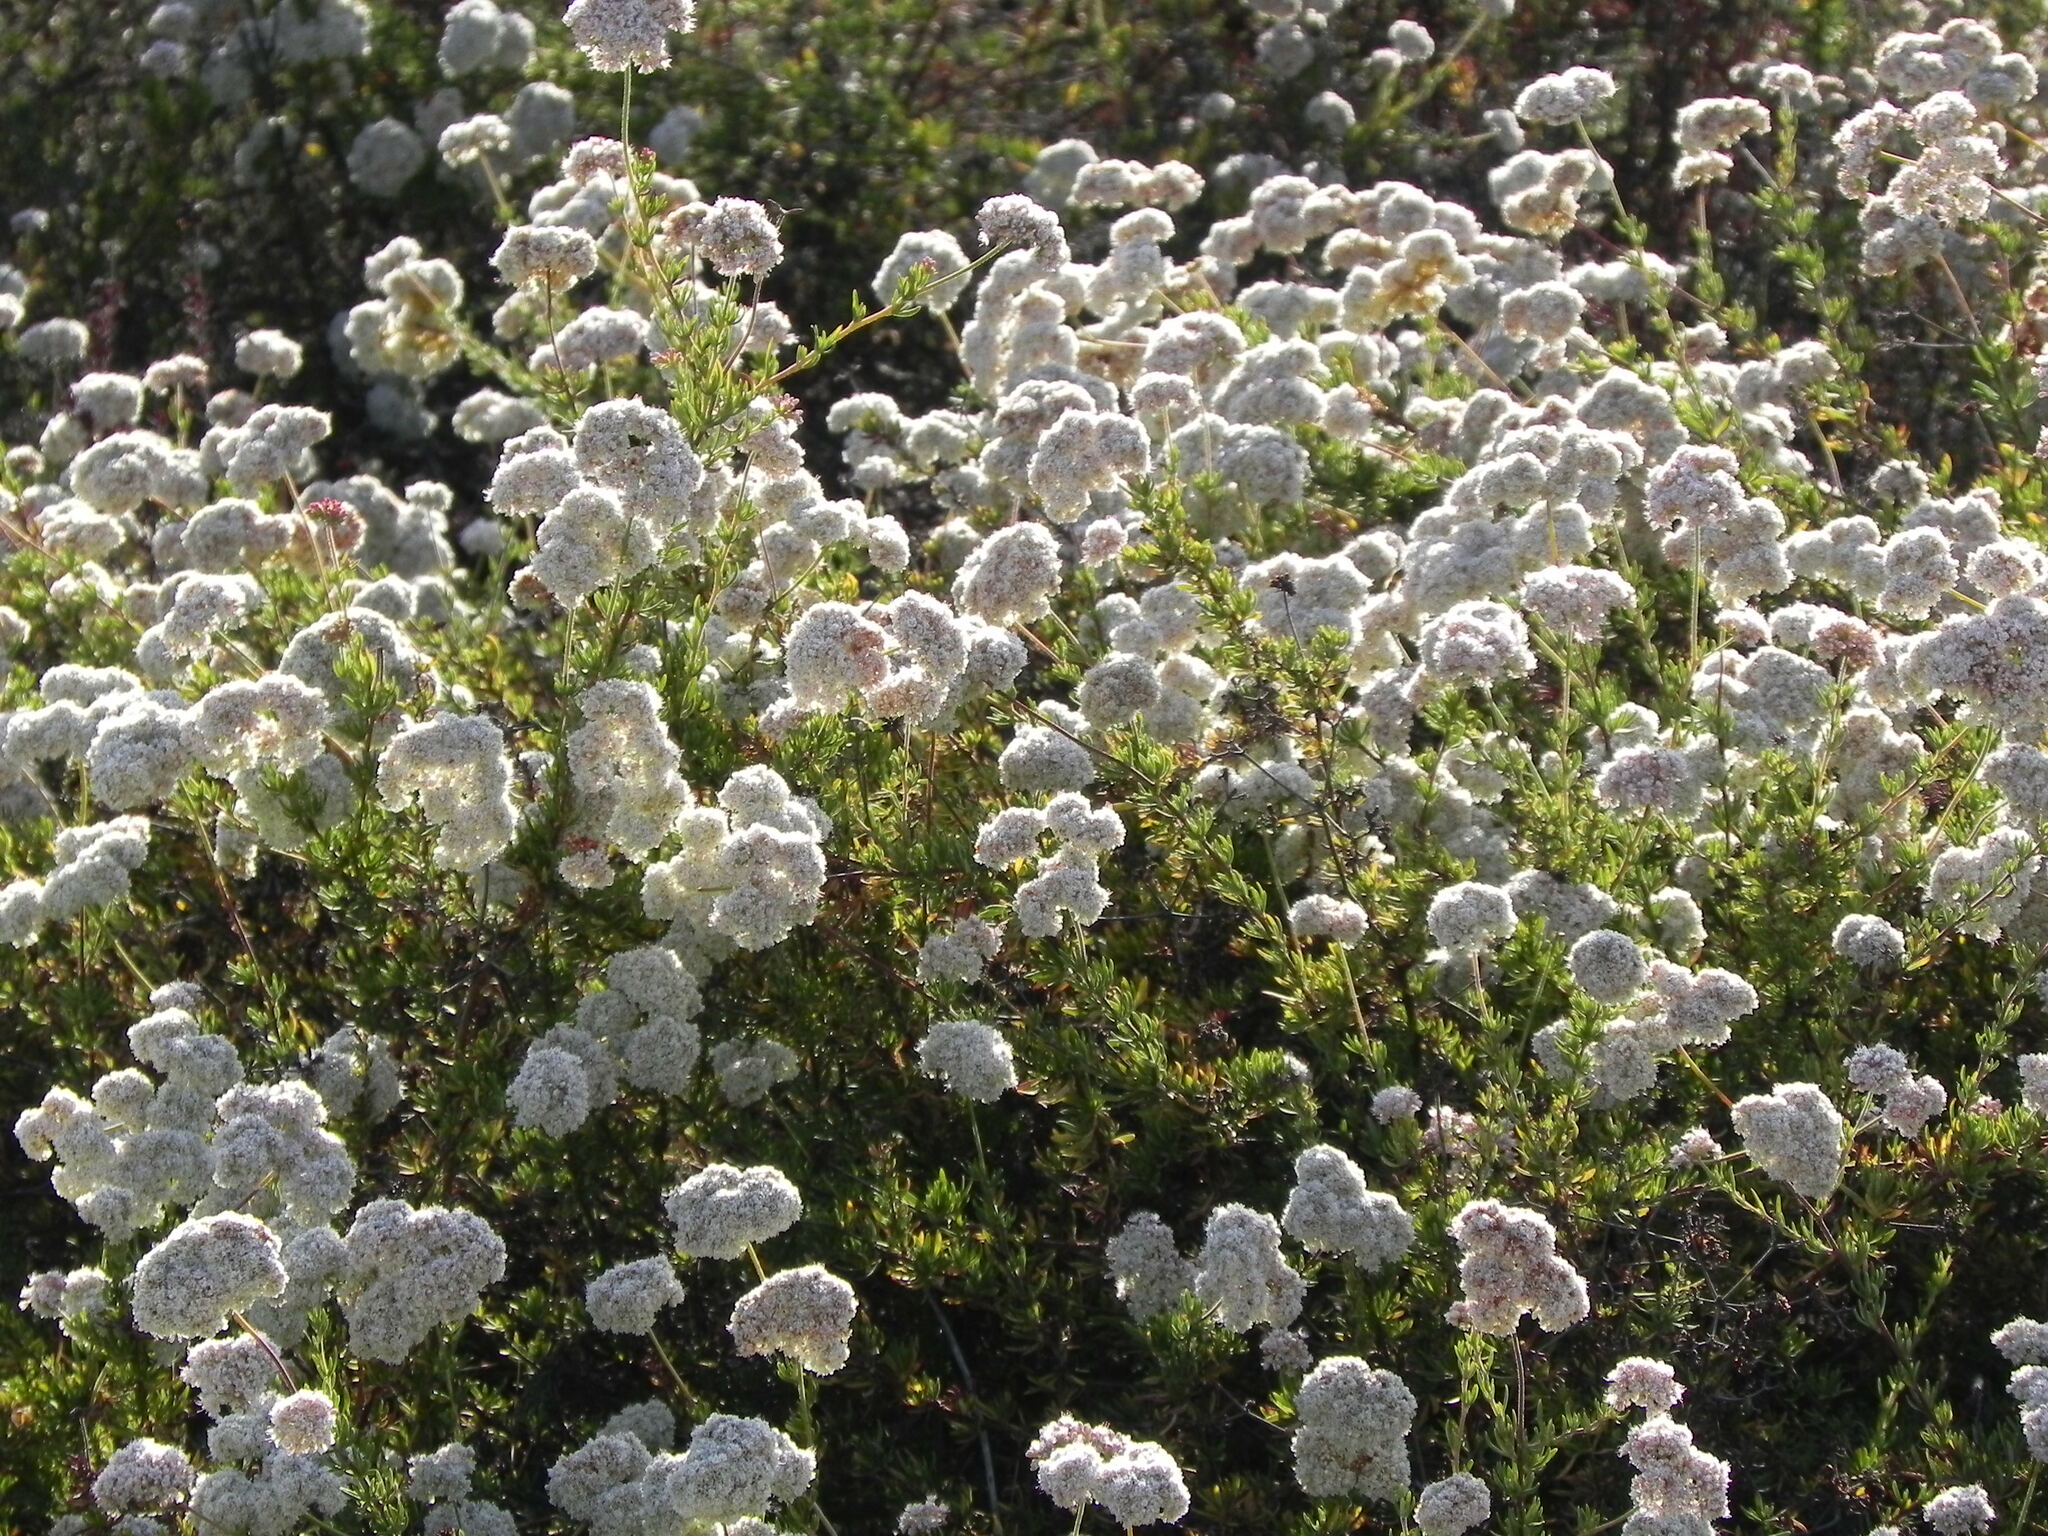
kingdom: Plantae
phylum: Tracheophyta
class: Magnoliopsida
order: Caryophyllales
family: Polygonaceae
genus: Eriogonum
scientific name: Eriogonum fasciculatum
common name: California wild buckwheat
